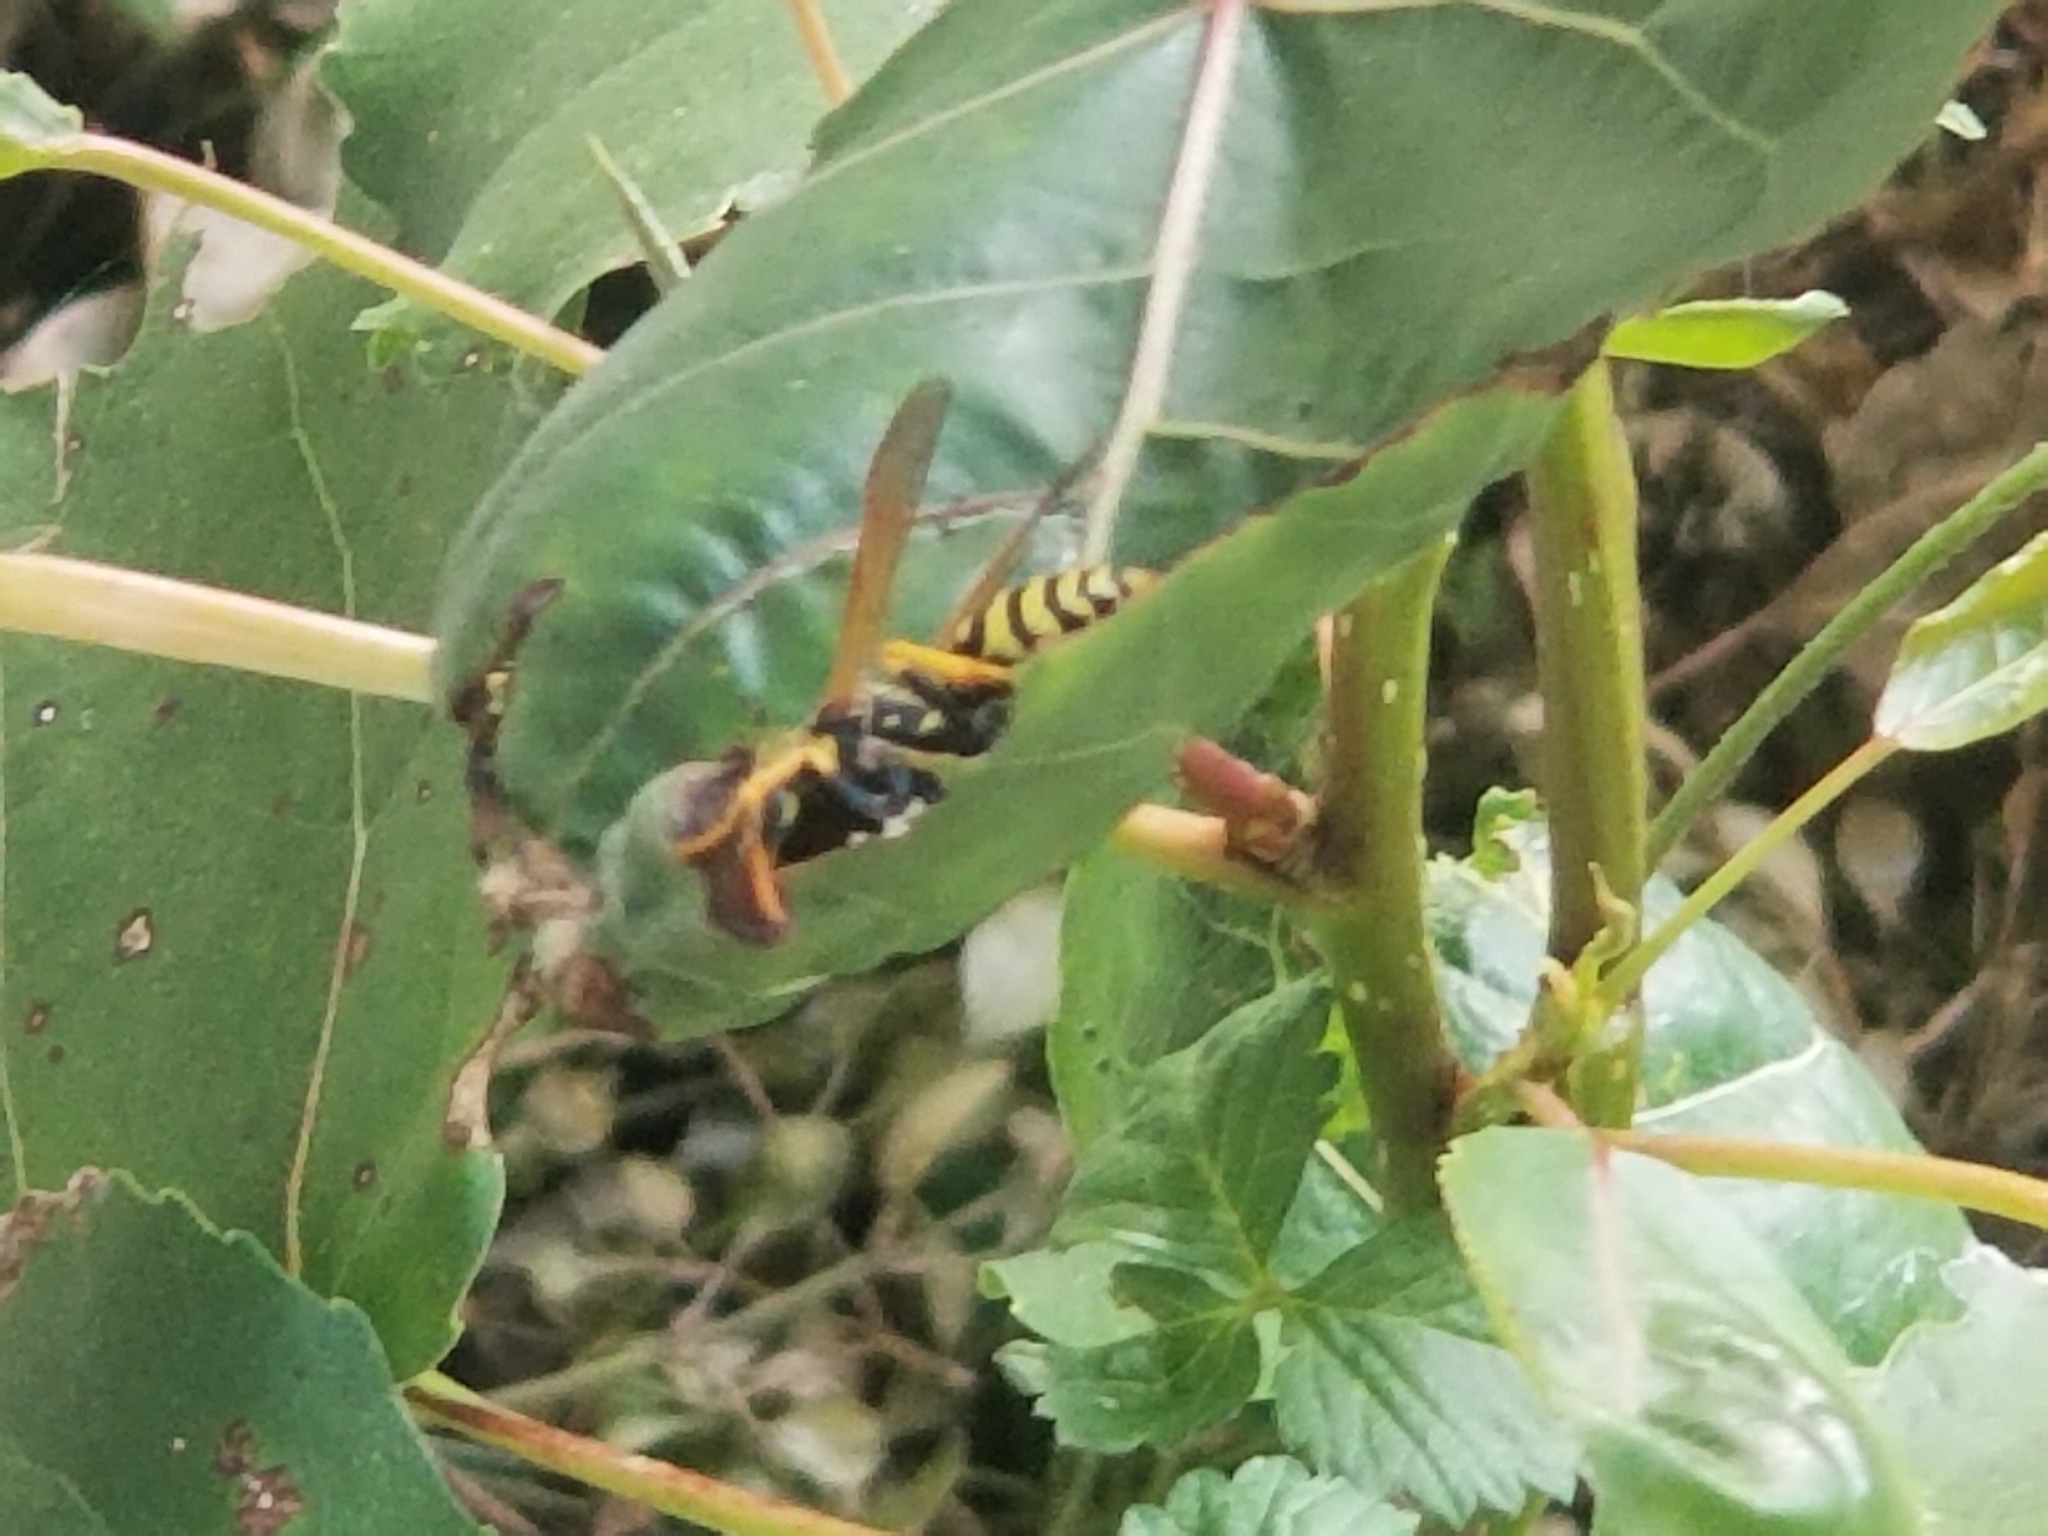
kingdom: Animalia
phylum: Arthropoda
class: Insecta
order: Hymenoptera
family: Eumenidae
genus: Polistes
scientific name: Polistes dominula
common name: Paper wasp
